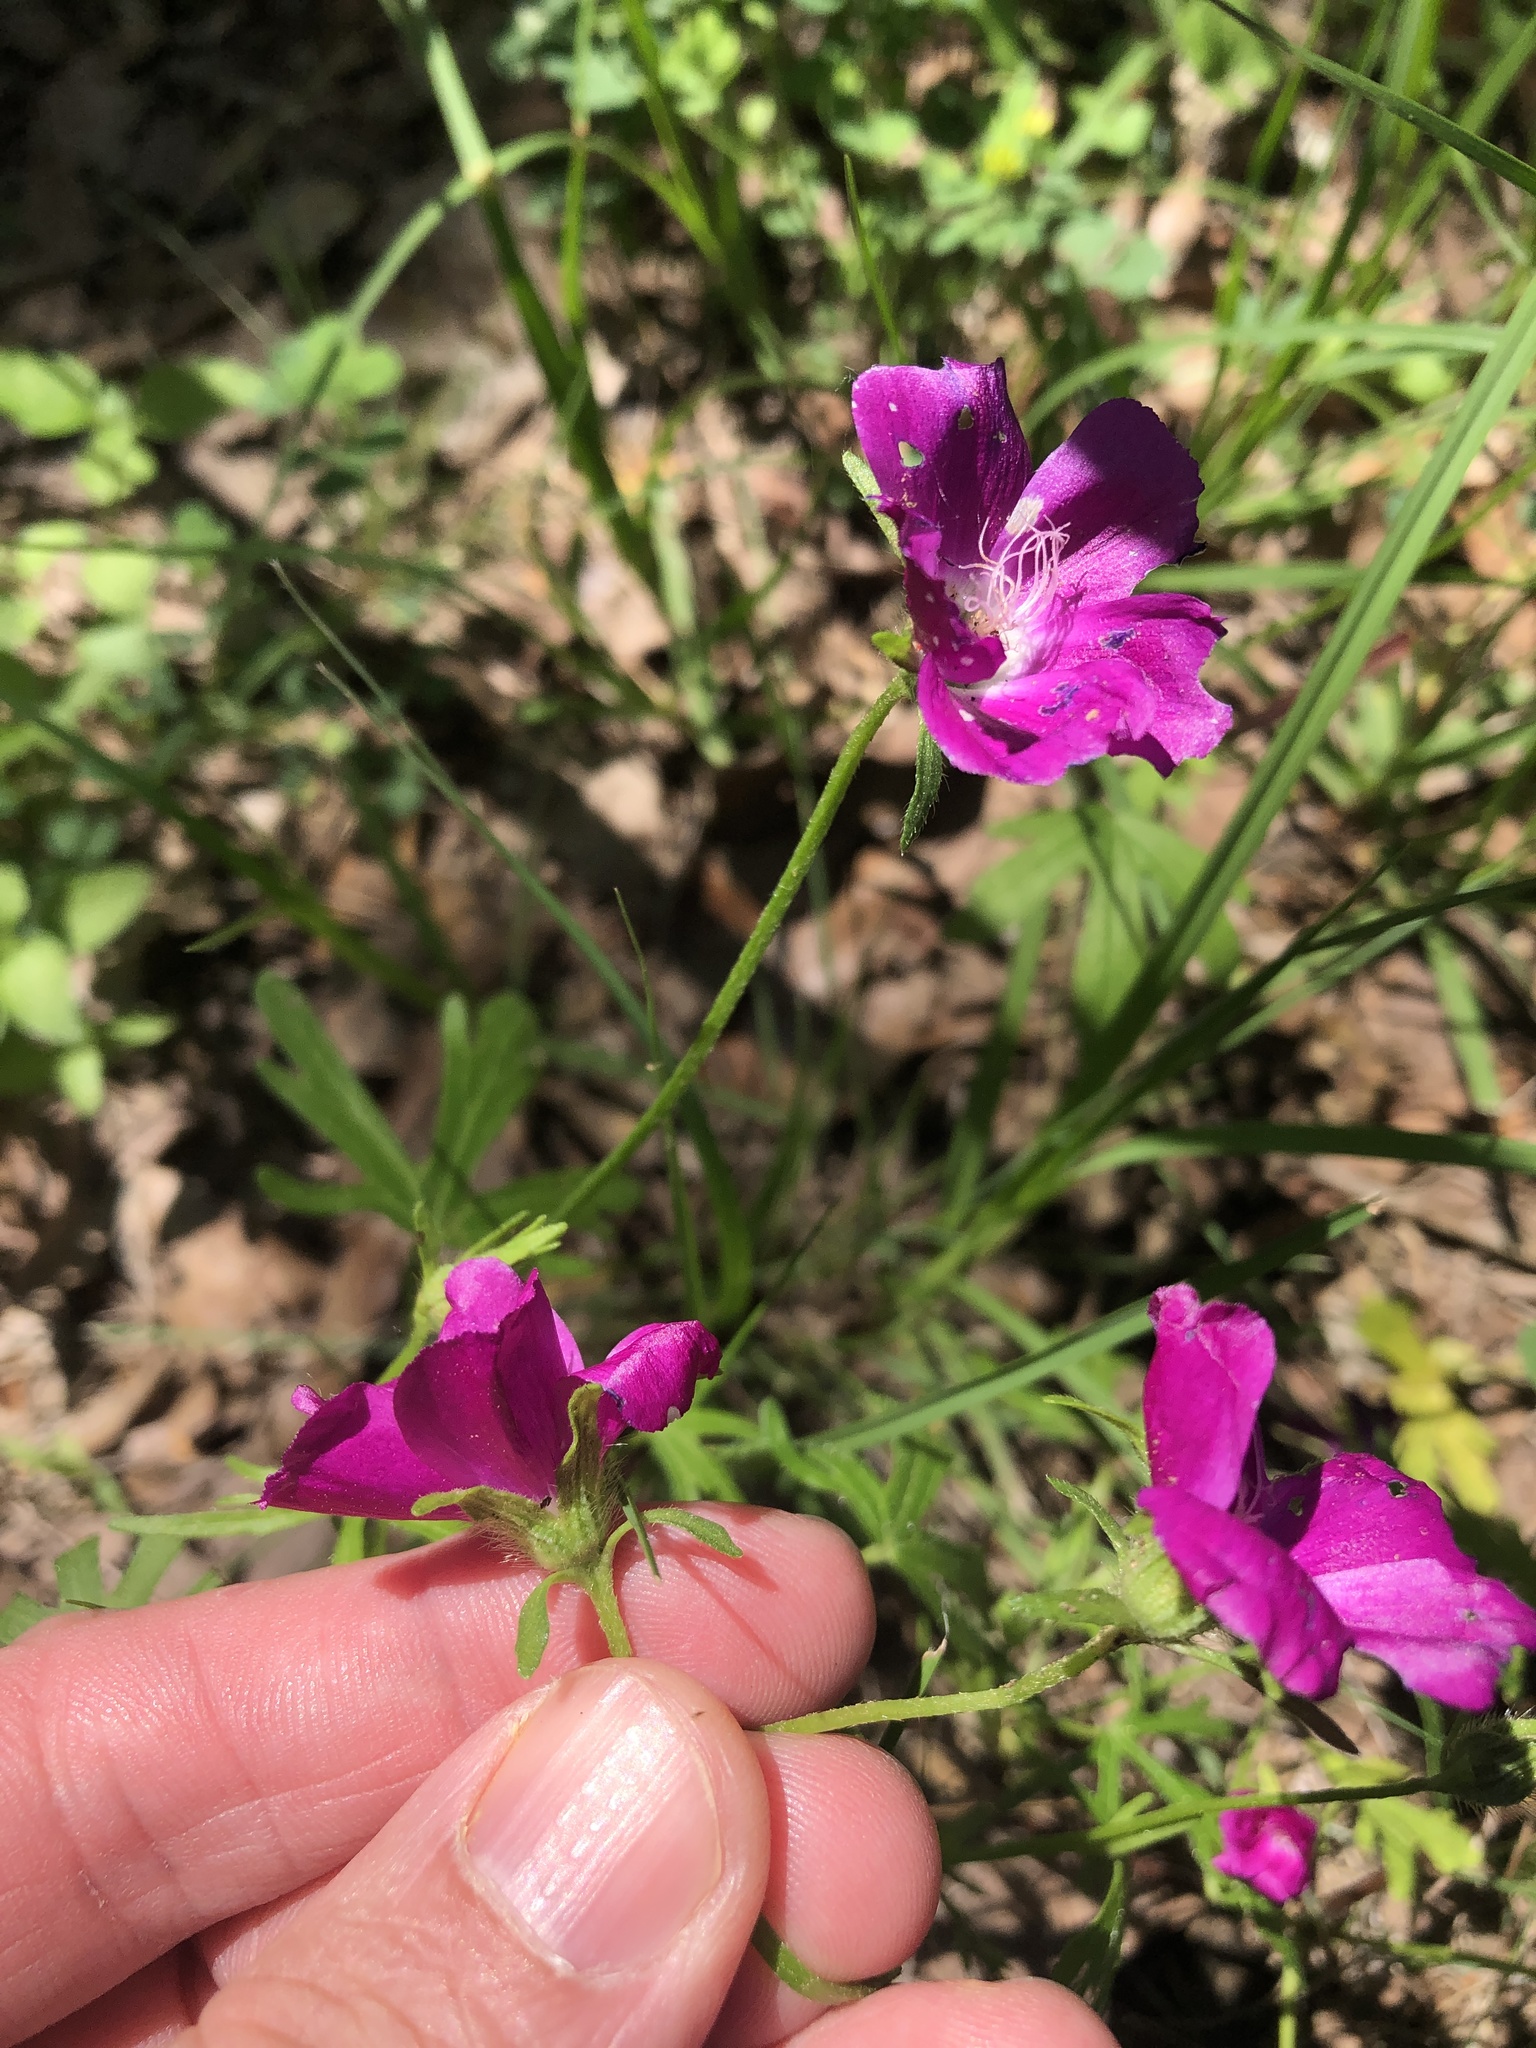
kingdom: Plantae
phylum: Tracheophyta
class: Magnoliopsida
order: Malvales
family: Malvaceae
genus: Callirhoe
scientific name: Callirhoe involucrata
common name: Purple poppy-mallow
